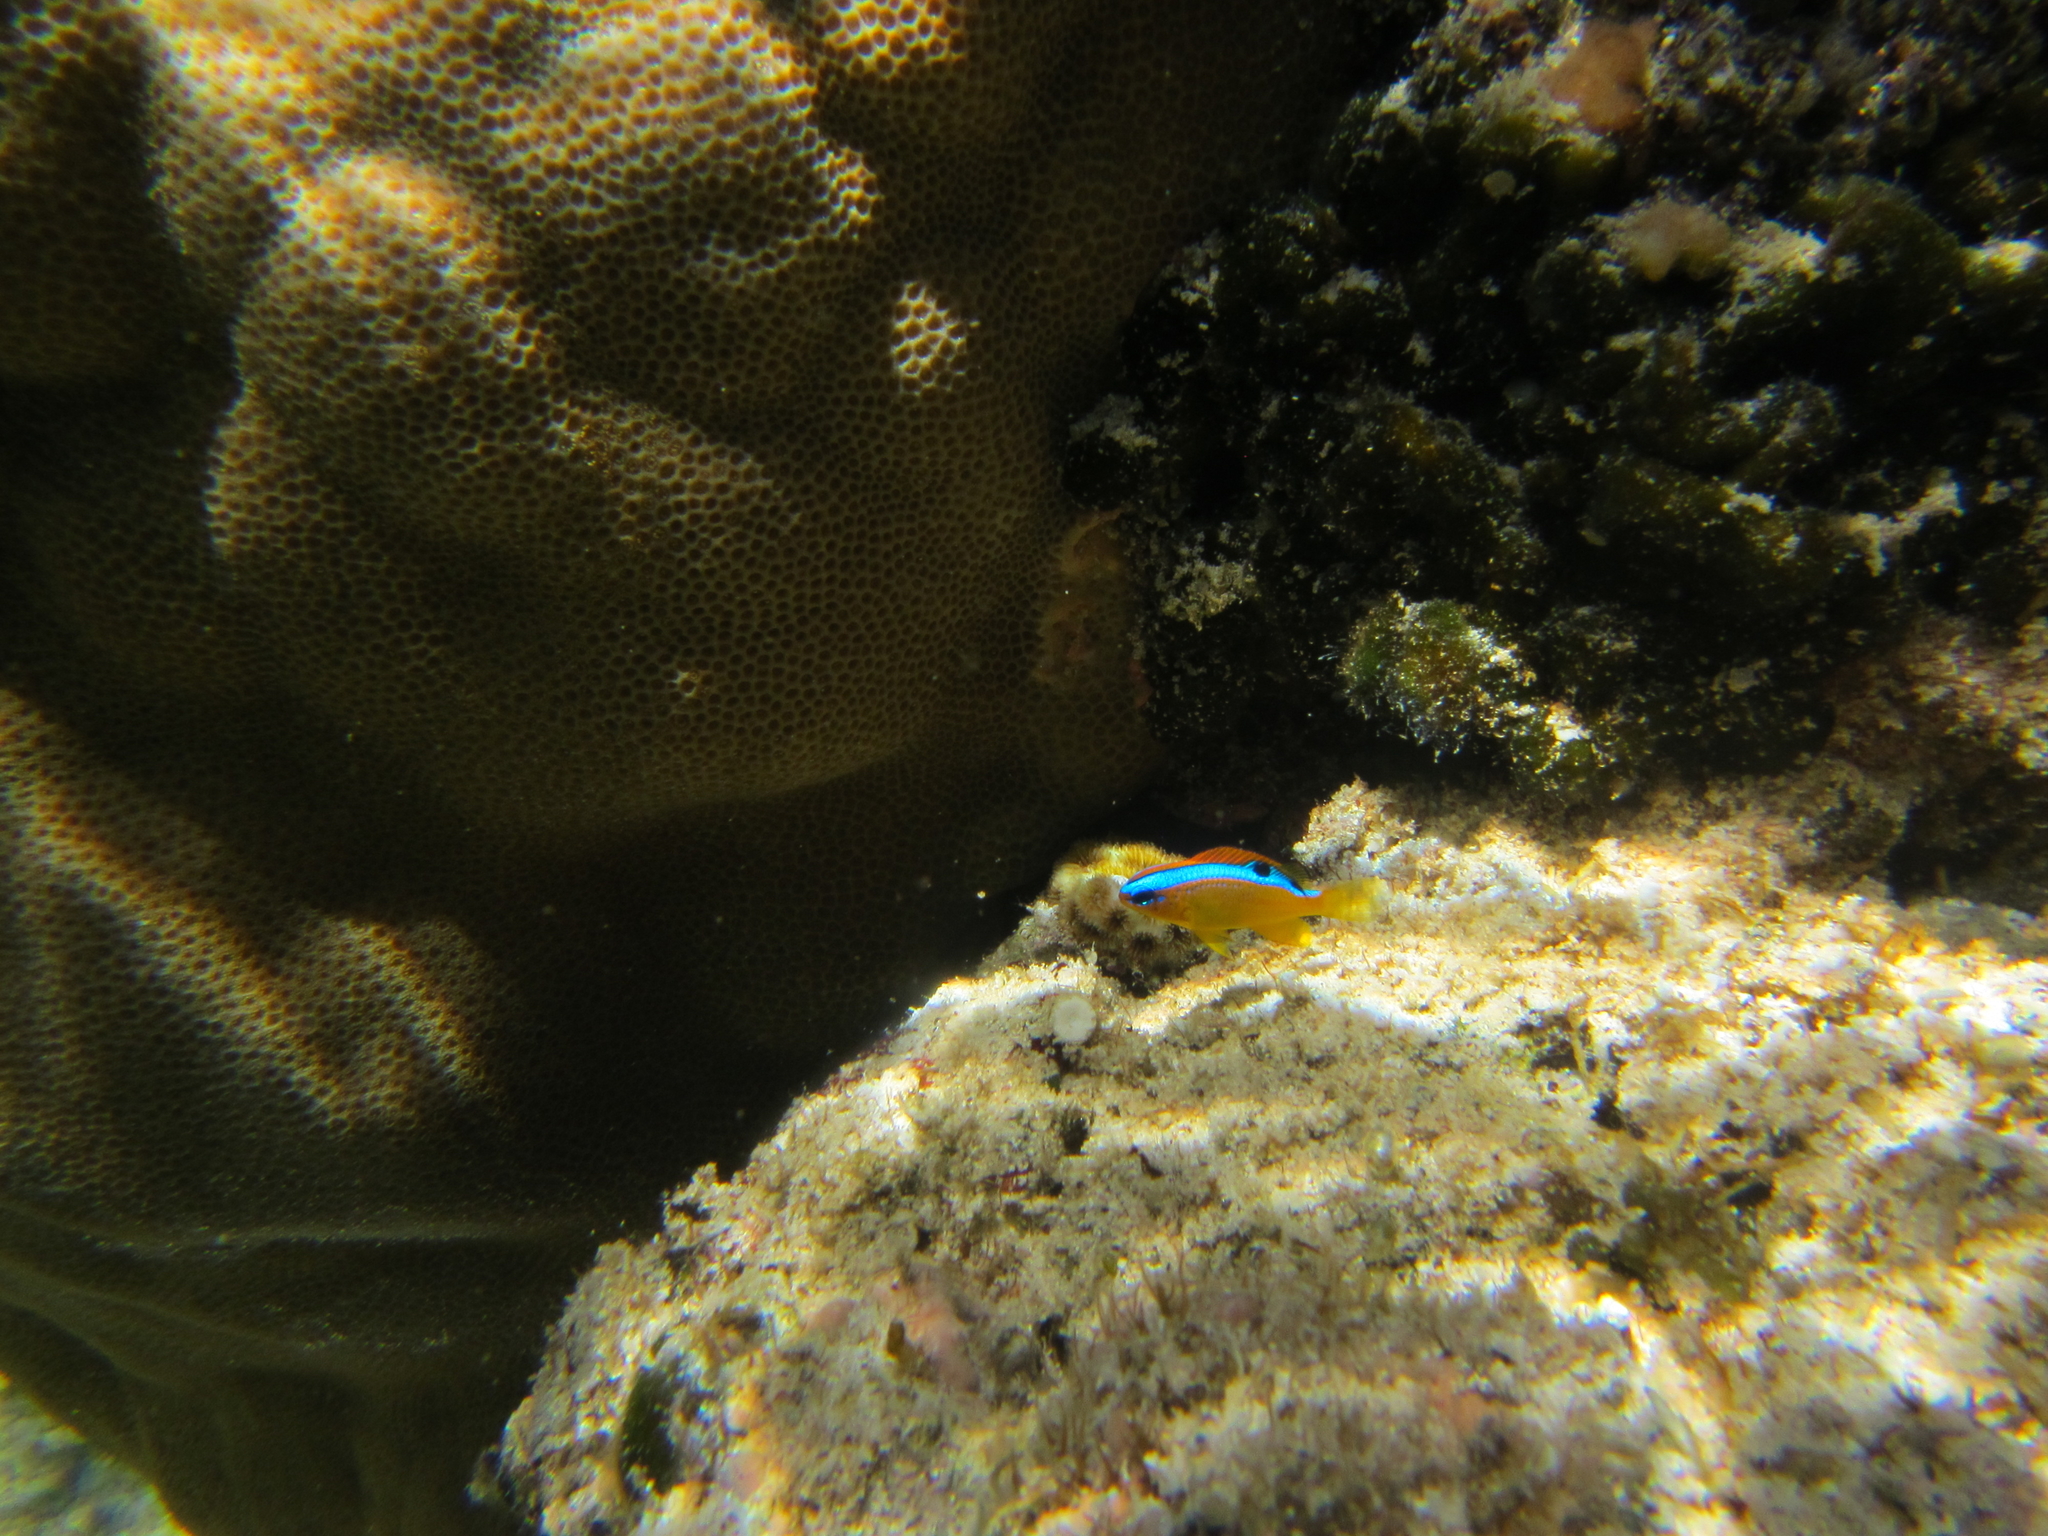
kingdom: Animalia
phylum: Chordata
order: Perciformes
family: Pomacentridae
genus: Chrysiptera
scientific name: Chrysiptera brownriggii
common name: Surge demoiselle
